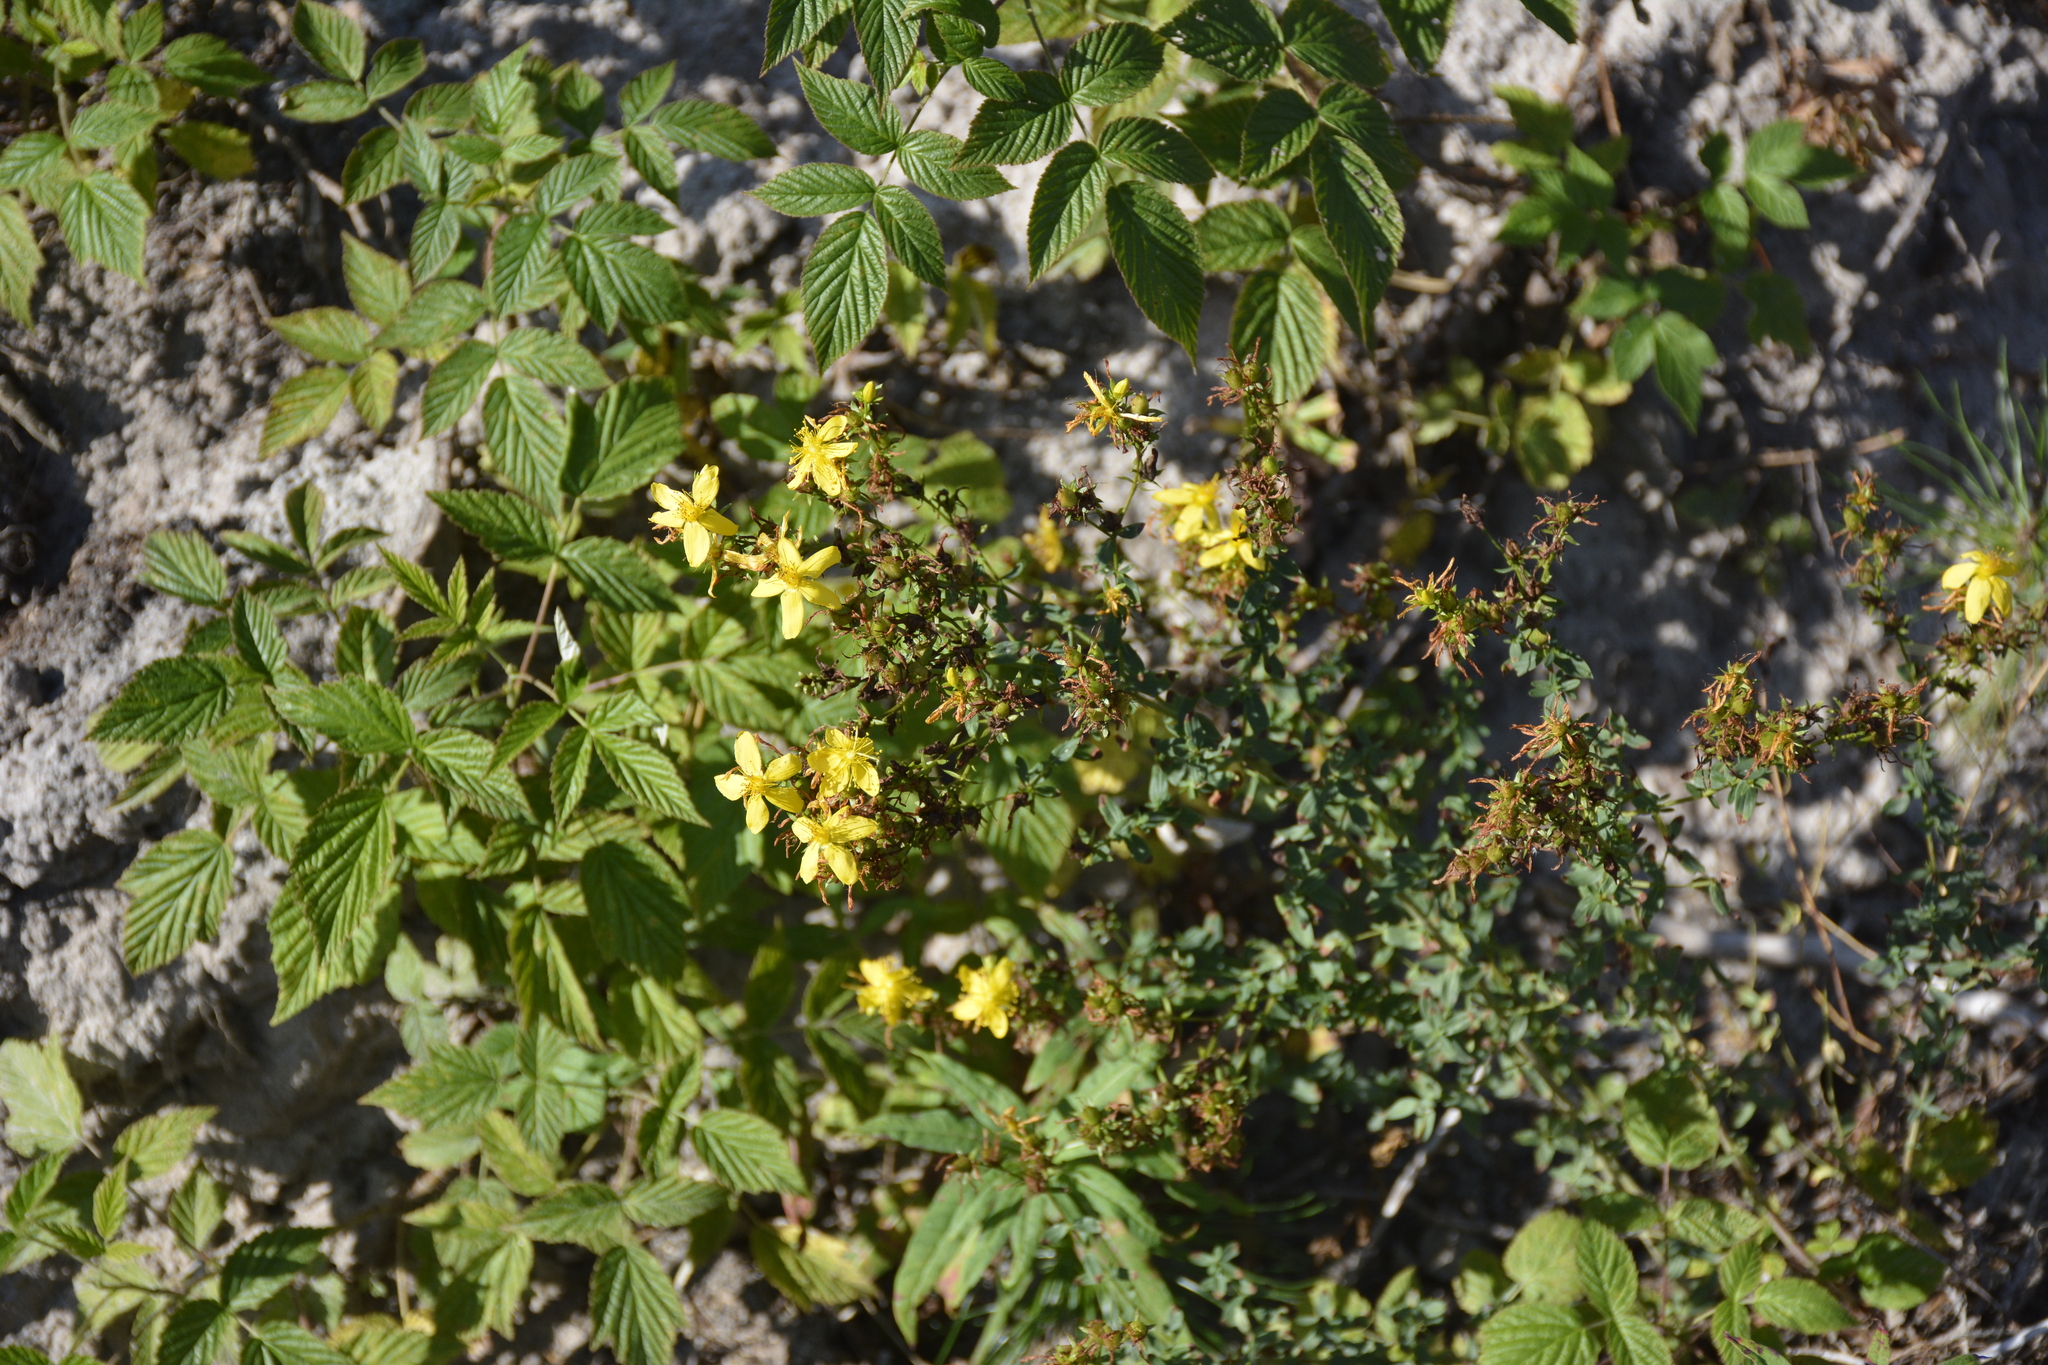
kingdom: Plantae
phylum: Tracheophyta
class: Magnoliopsida
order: Malpighiales
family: Hypericaceae
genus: Hypericum
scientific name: Hypericum perforatum
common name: Common st. johnswort
